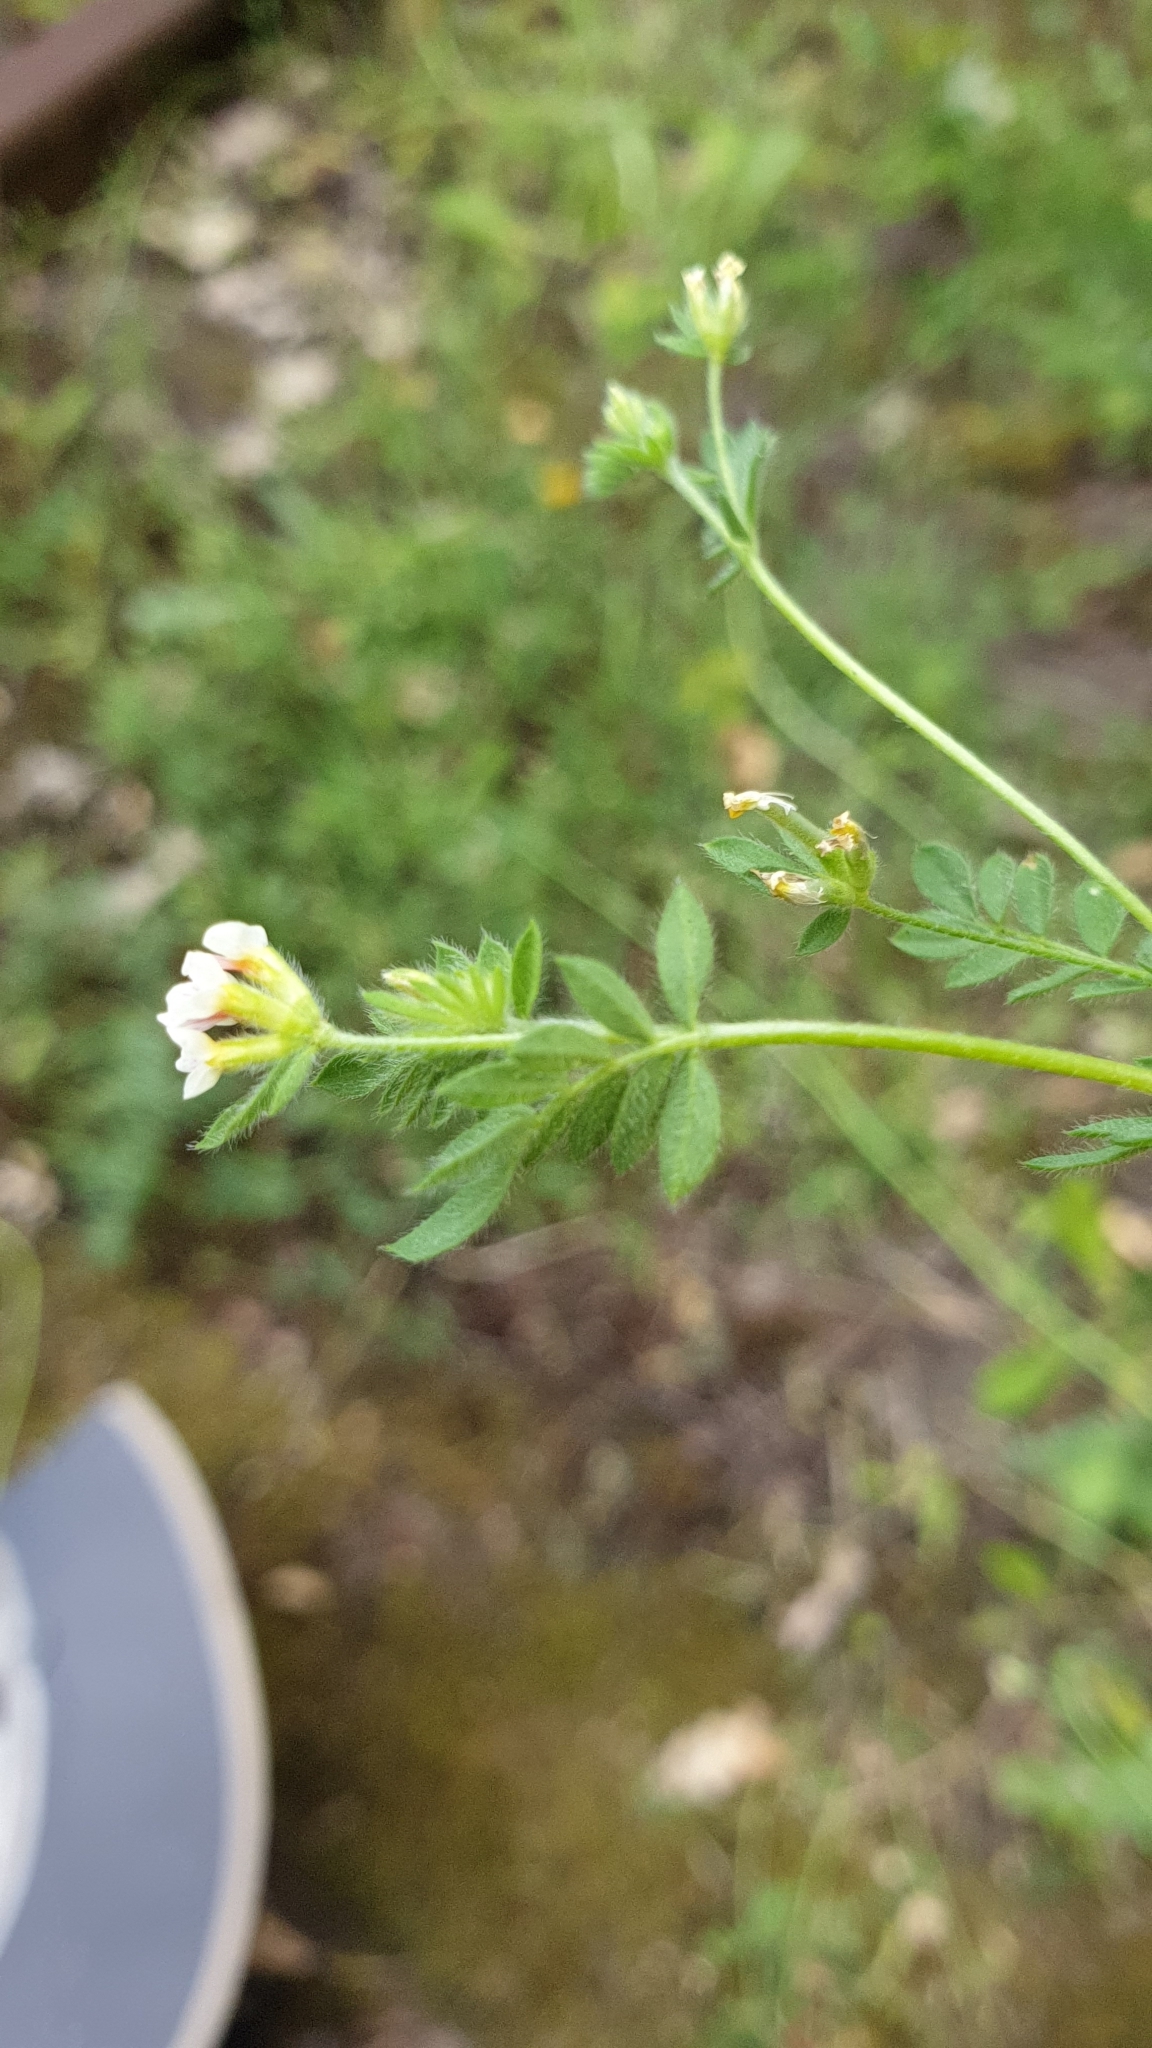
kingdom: Plantae
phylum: Tracheophyta
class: Magnoliopsida
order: Fabales
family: Fabaceae
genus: Ornithopus
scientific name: Ornithopus perpusillus
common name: Bird's-foot
